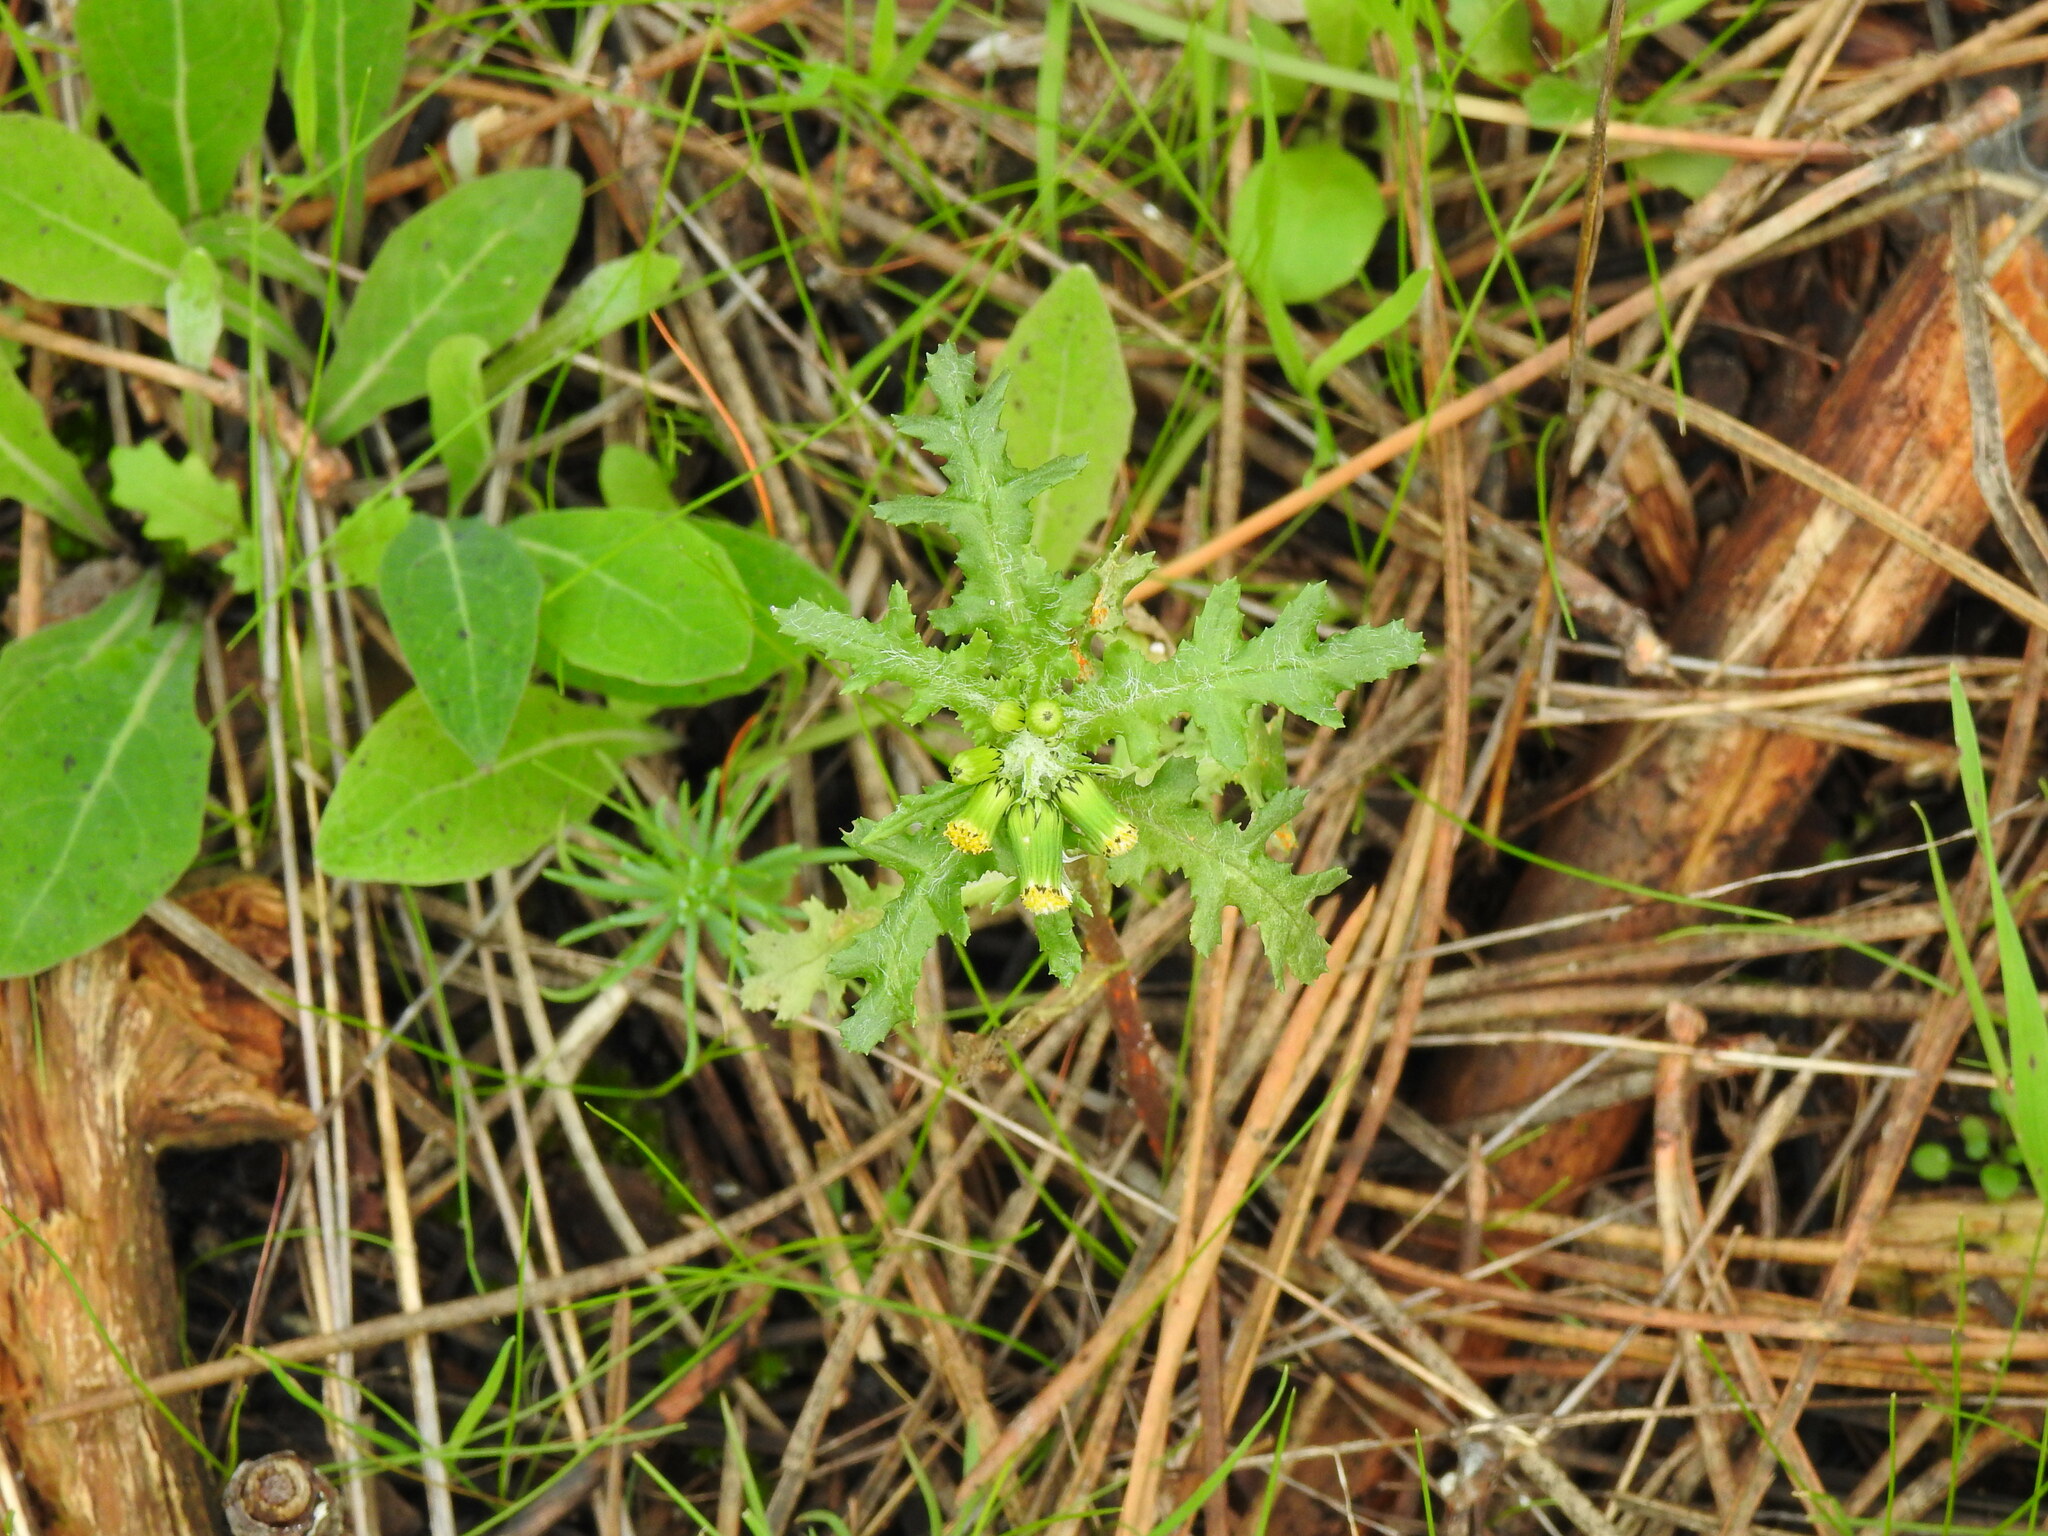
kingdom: Plantae
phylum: Tracheophyta
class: Magnoliopsida
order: Asterales
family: Asteraceae
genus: Senecio
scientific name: Senecio vulgaris
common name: Old-man-in-the-spring
